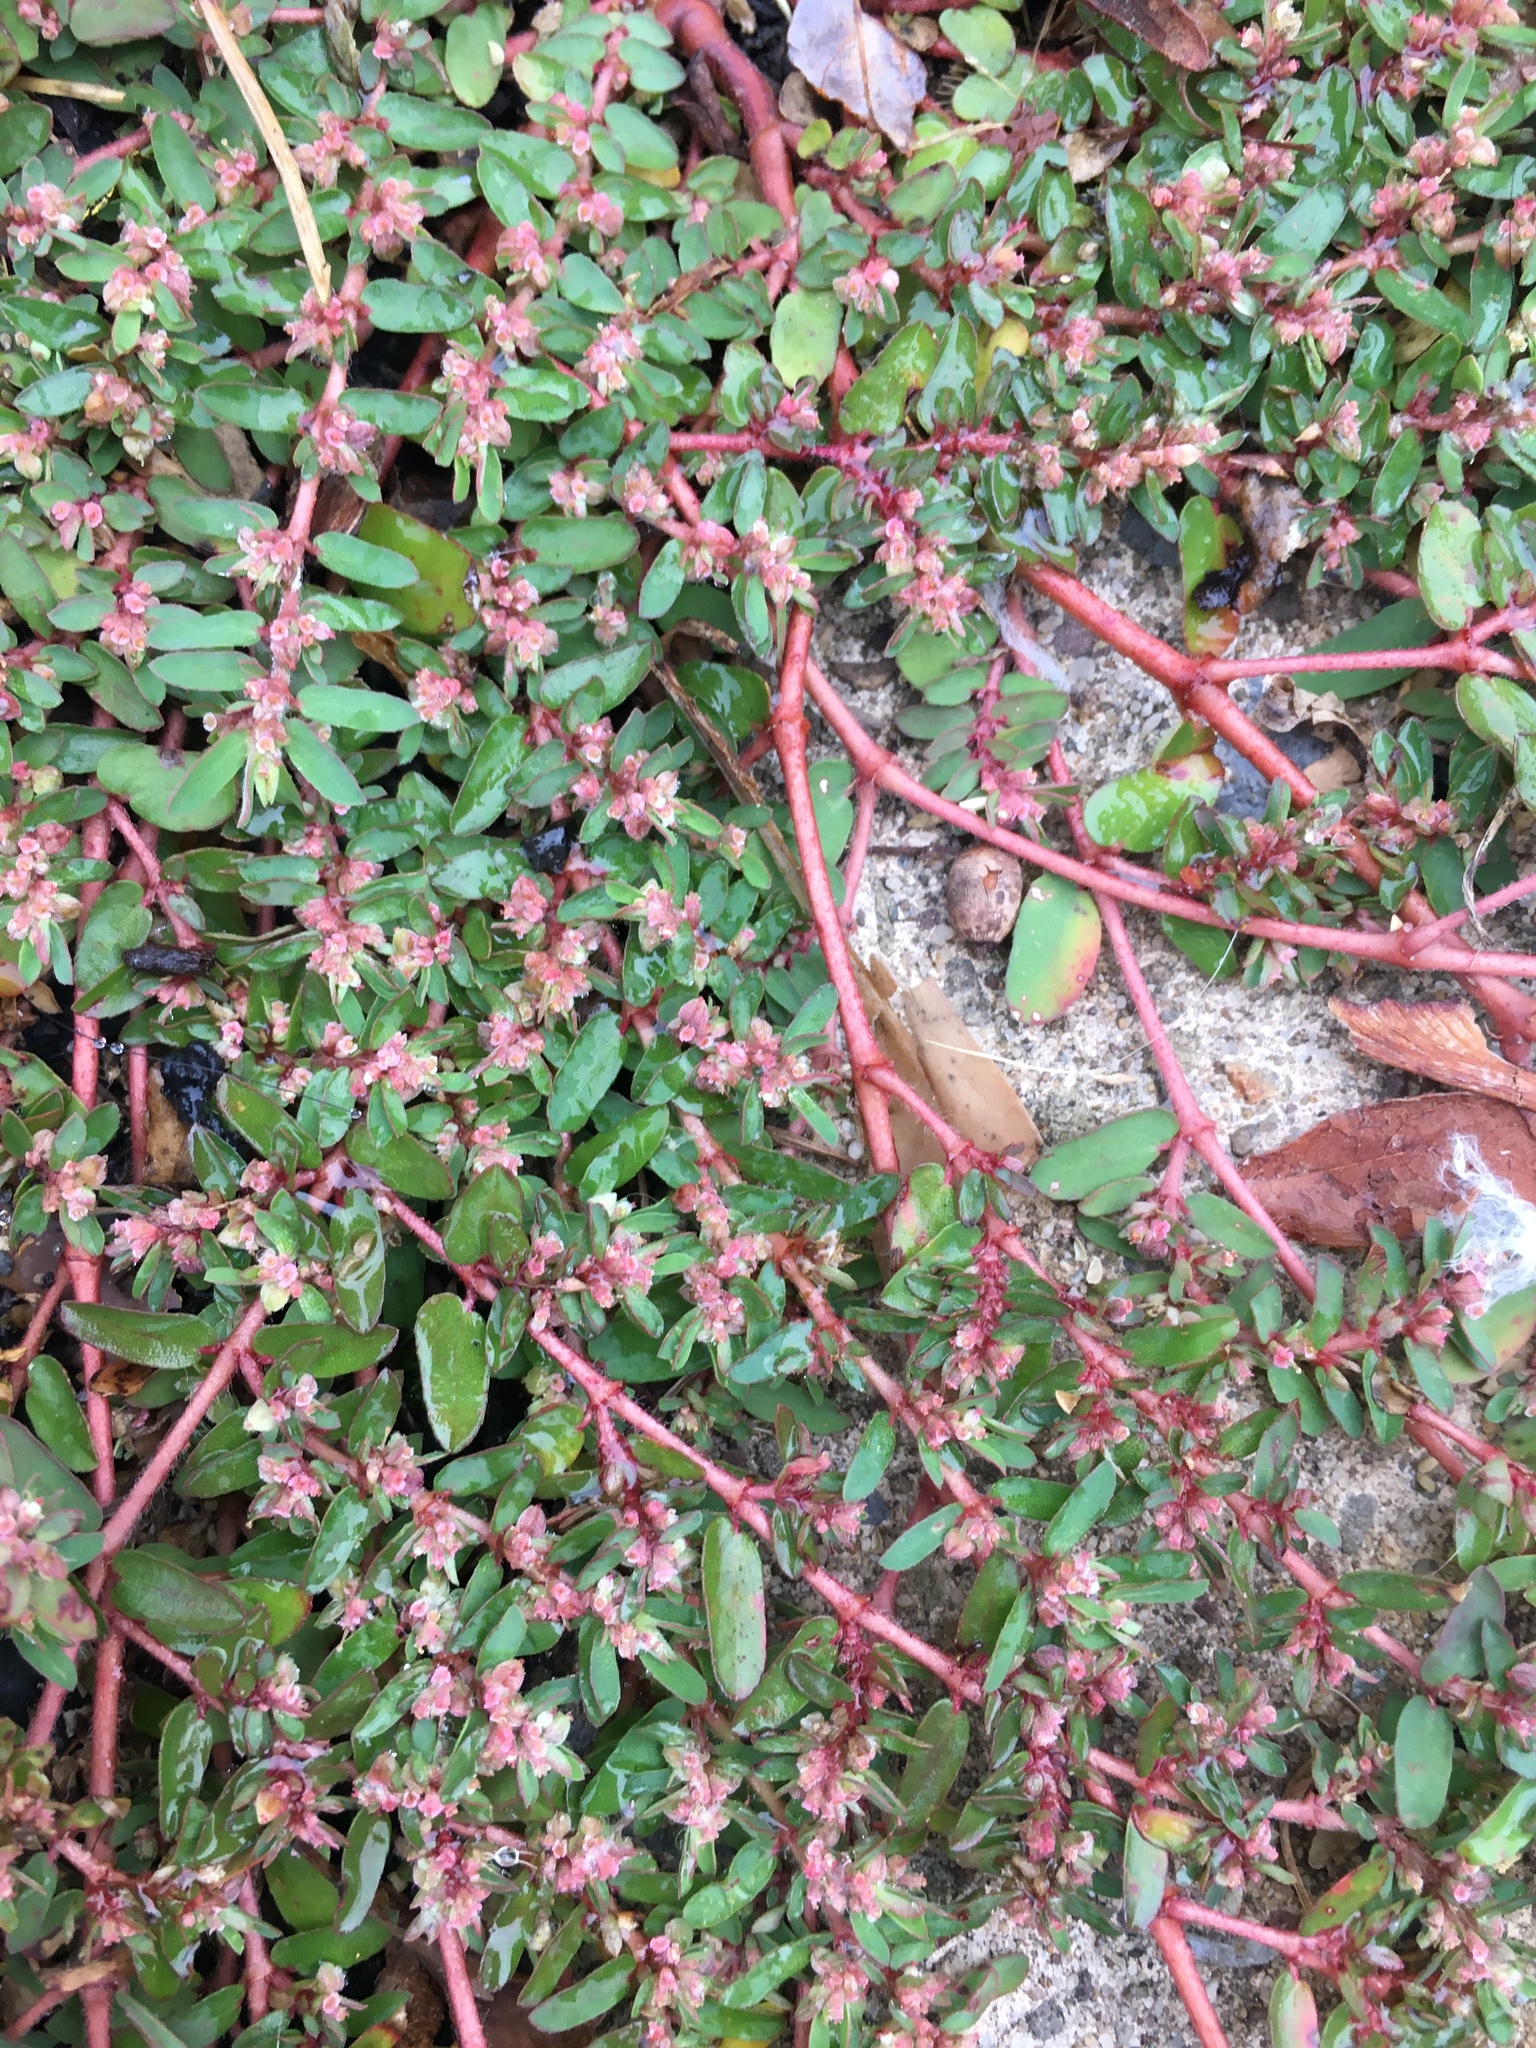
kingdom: Plantae
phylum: Tracheophyta
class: Magnoliopsida
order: Malpighiales
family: Euphorbiaceae
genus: Euphorbia
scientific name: Euphorbia maculata
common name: Spotted spurge
